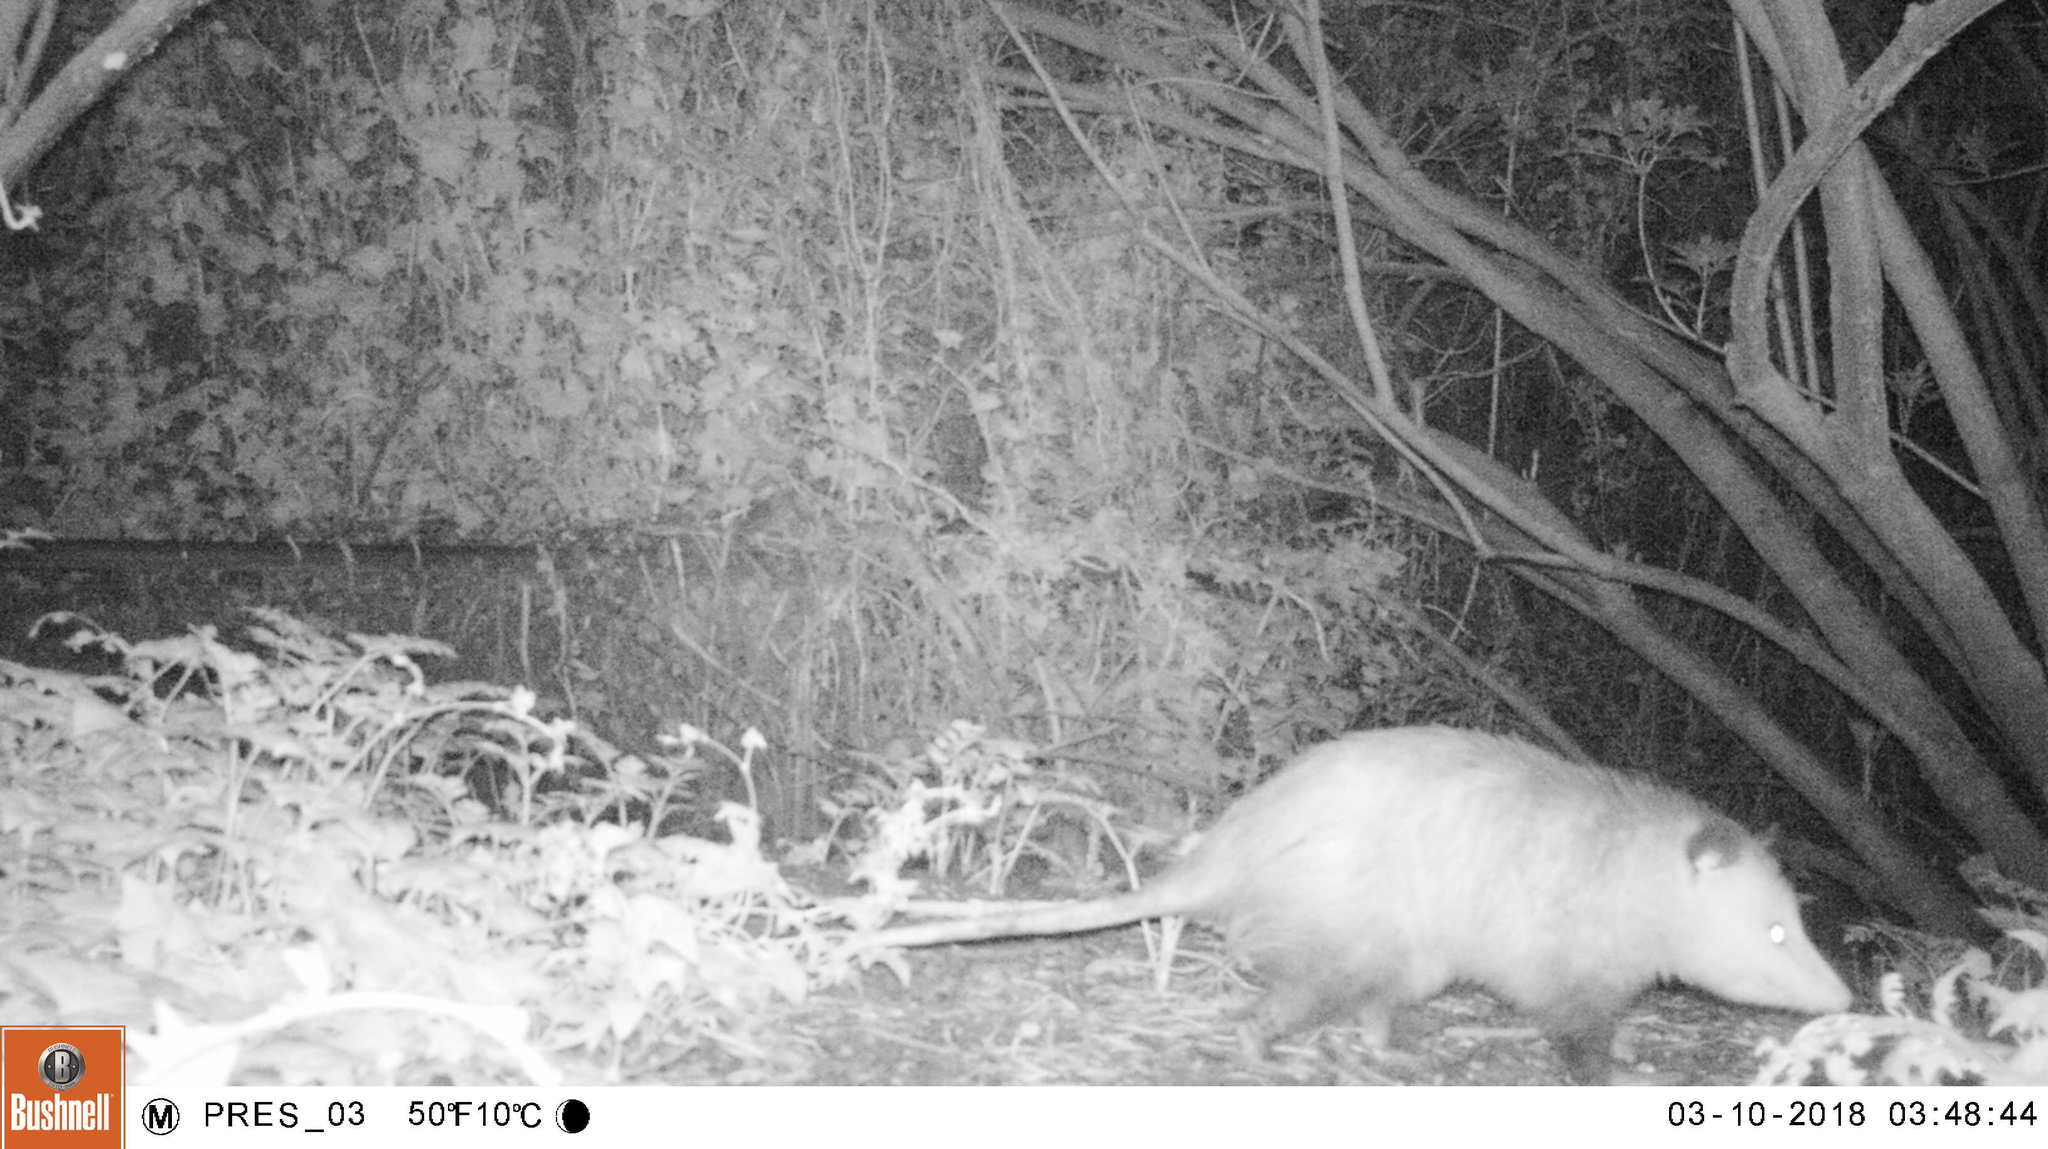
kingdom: Animalia
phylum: Chordata
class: Mammalia
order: Didelphimorphia
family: Didelphidae
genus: Didelphis
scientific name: Didelphis virginiana
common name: Virginia opossum
